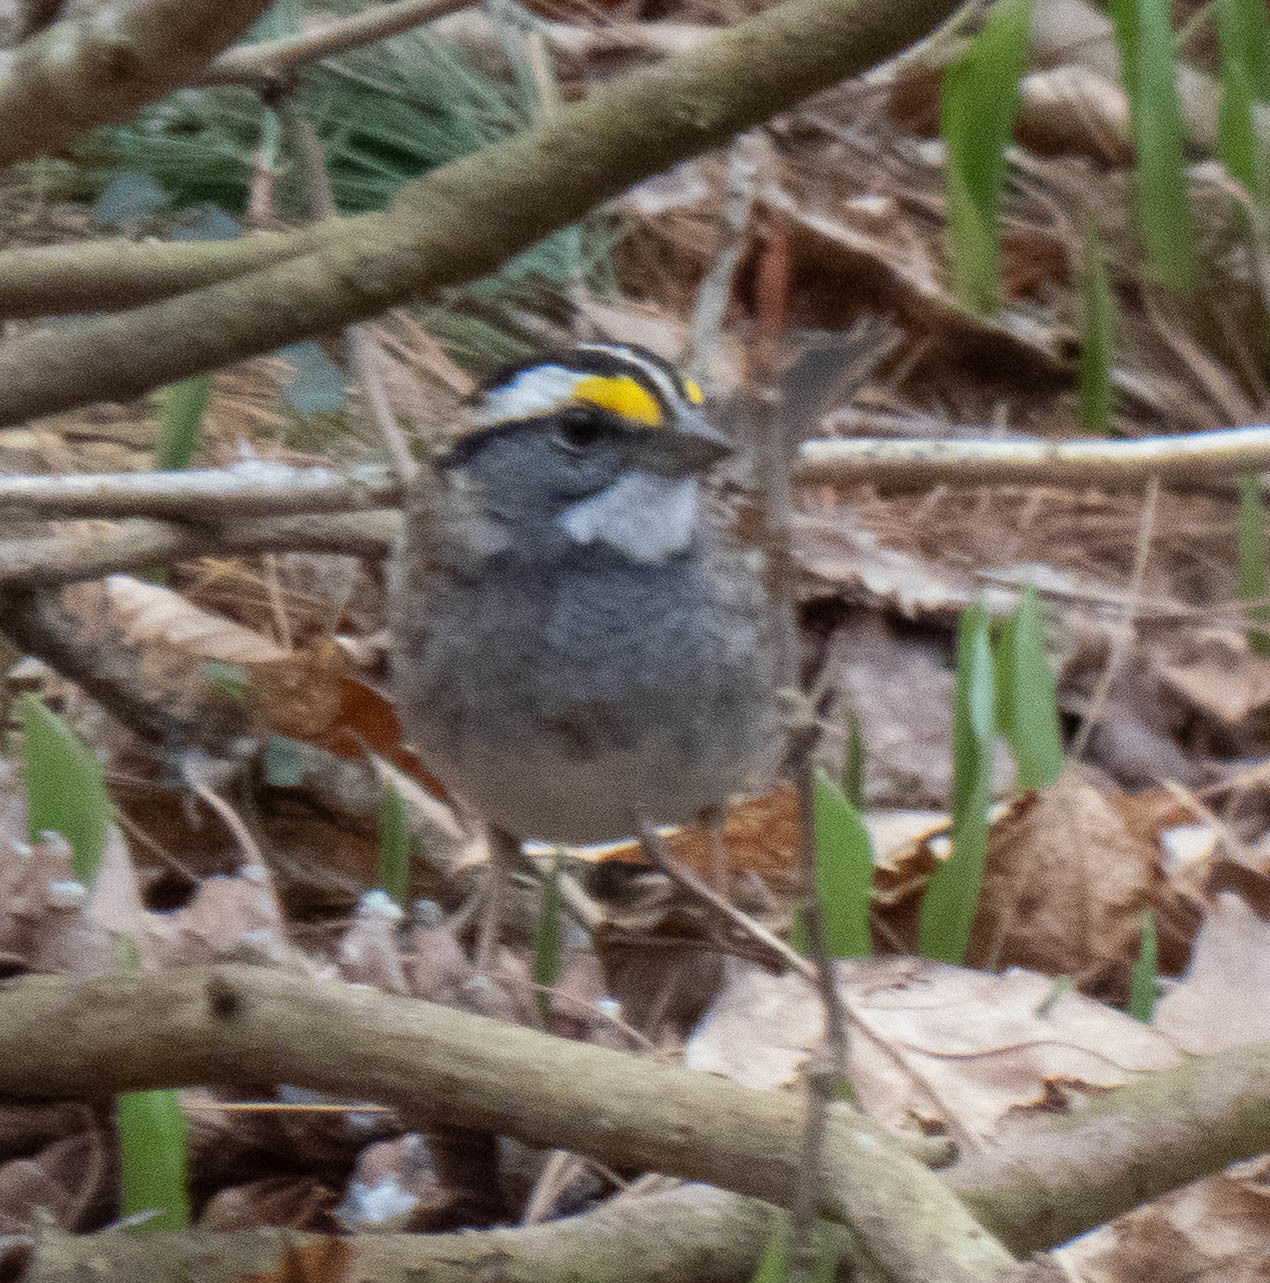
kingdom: Animalia
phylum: Chordata
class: Aves
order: Passeriformes
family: Passerellidae
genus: Zonotrichia
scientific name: Zonotrichia albicollis
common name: White-throated sparrow
